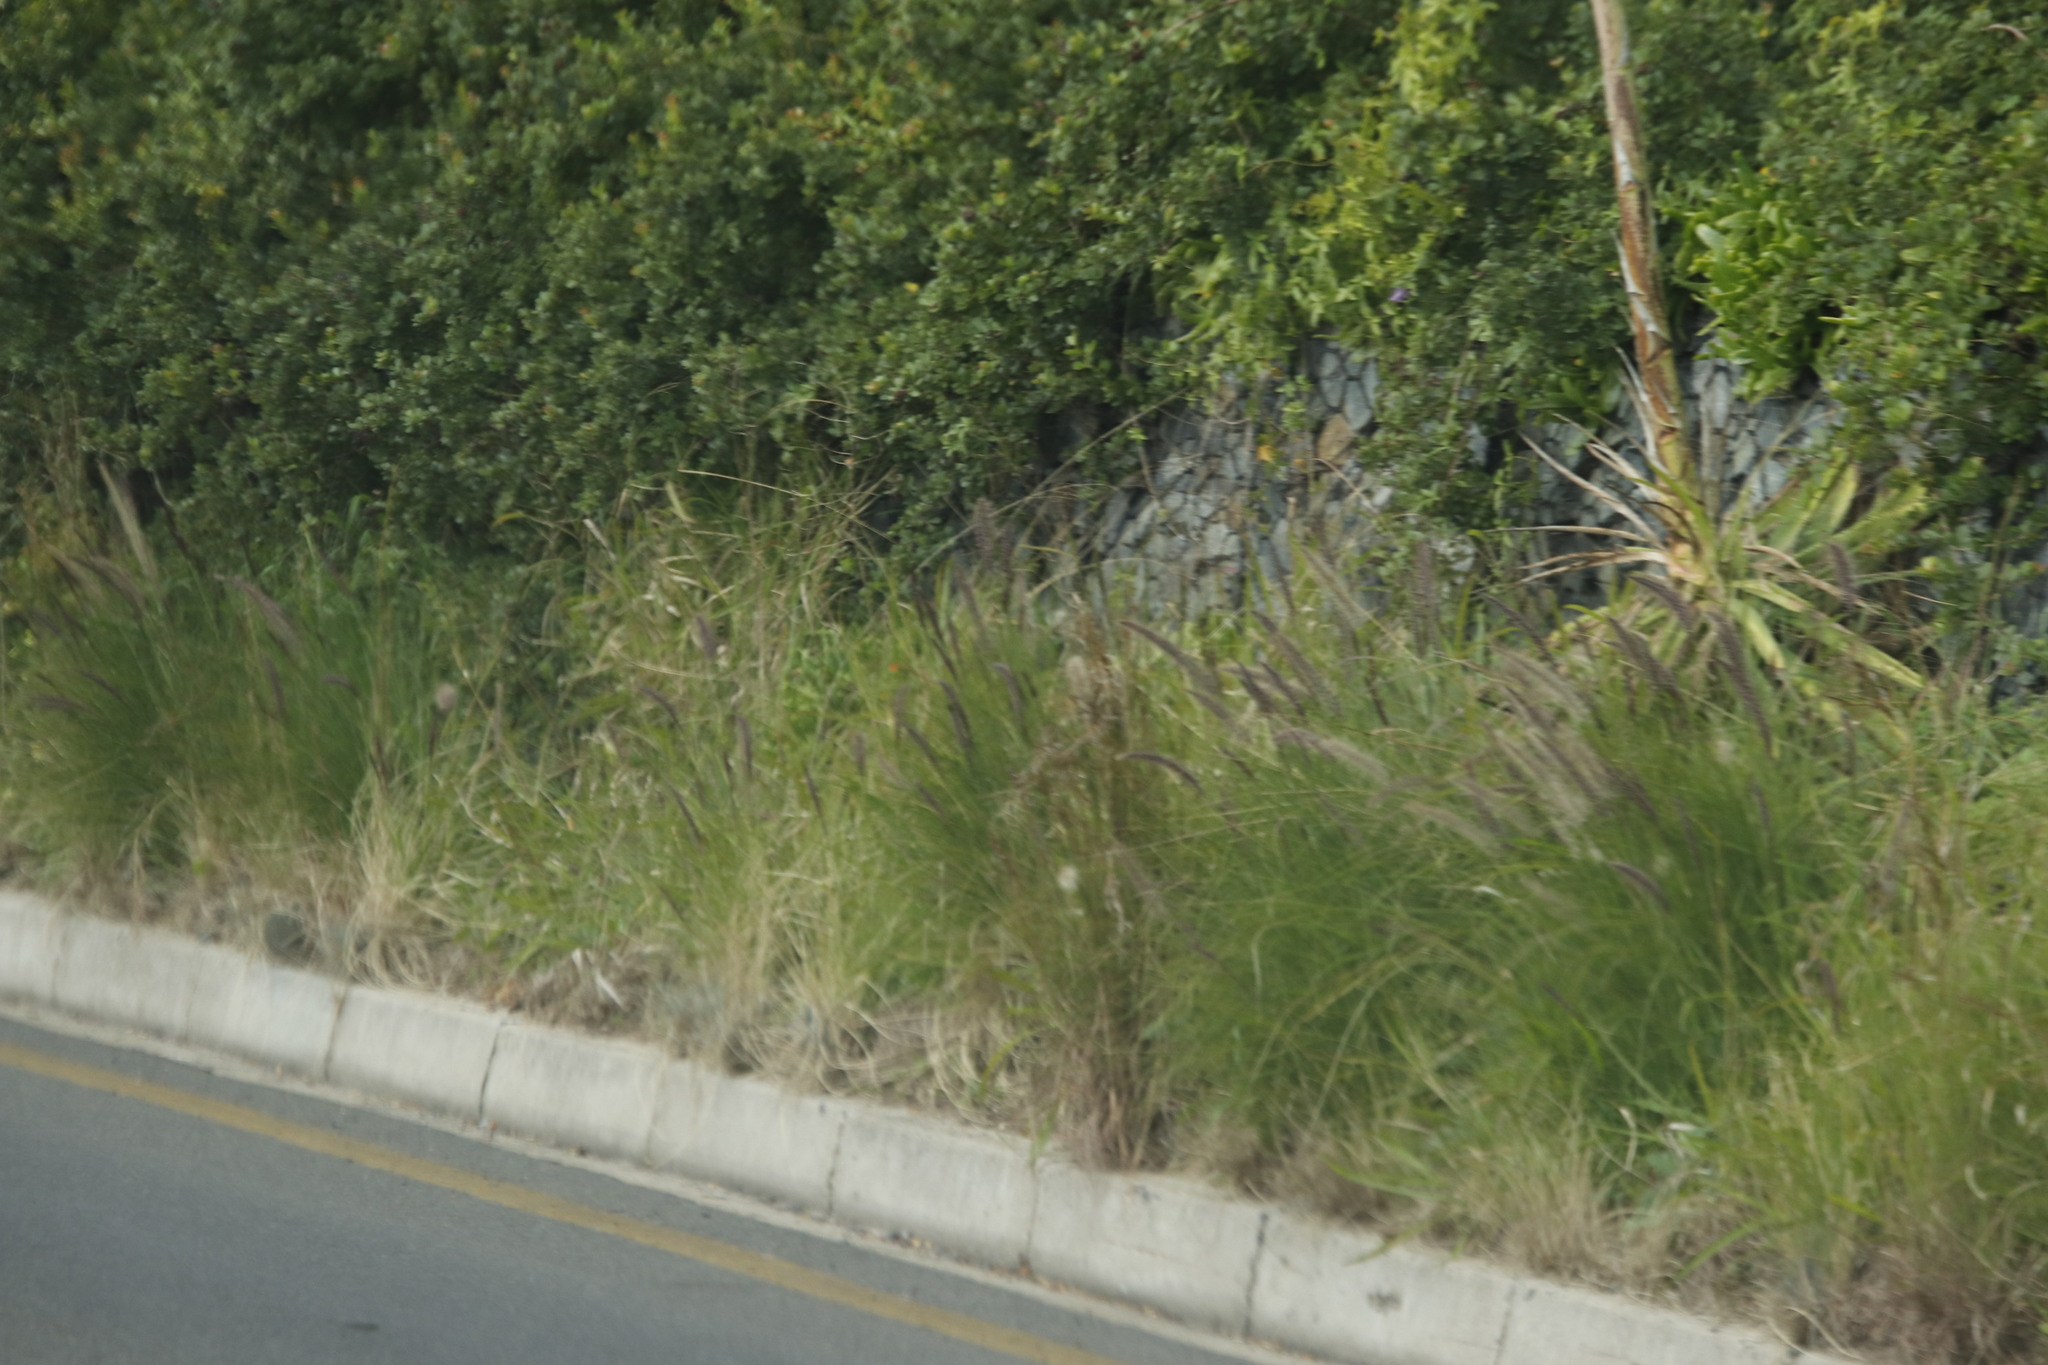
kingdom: Plantae
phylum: Tracheophyta
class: Liliopsida
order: Poales
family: Poaceae
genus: Cenchrus
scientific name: Cenchrus setaceus
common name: Crimson fountaingrass
